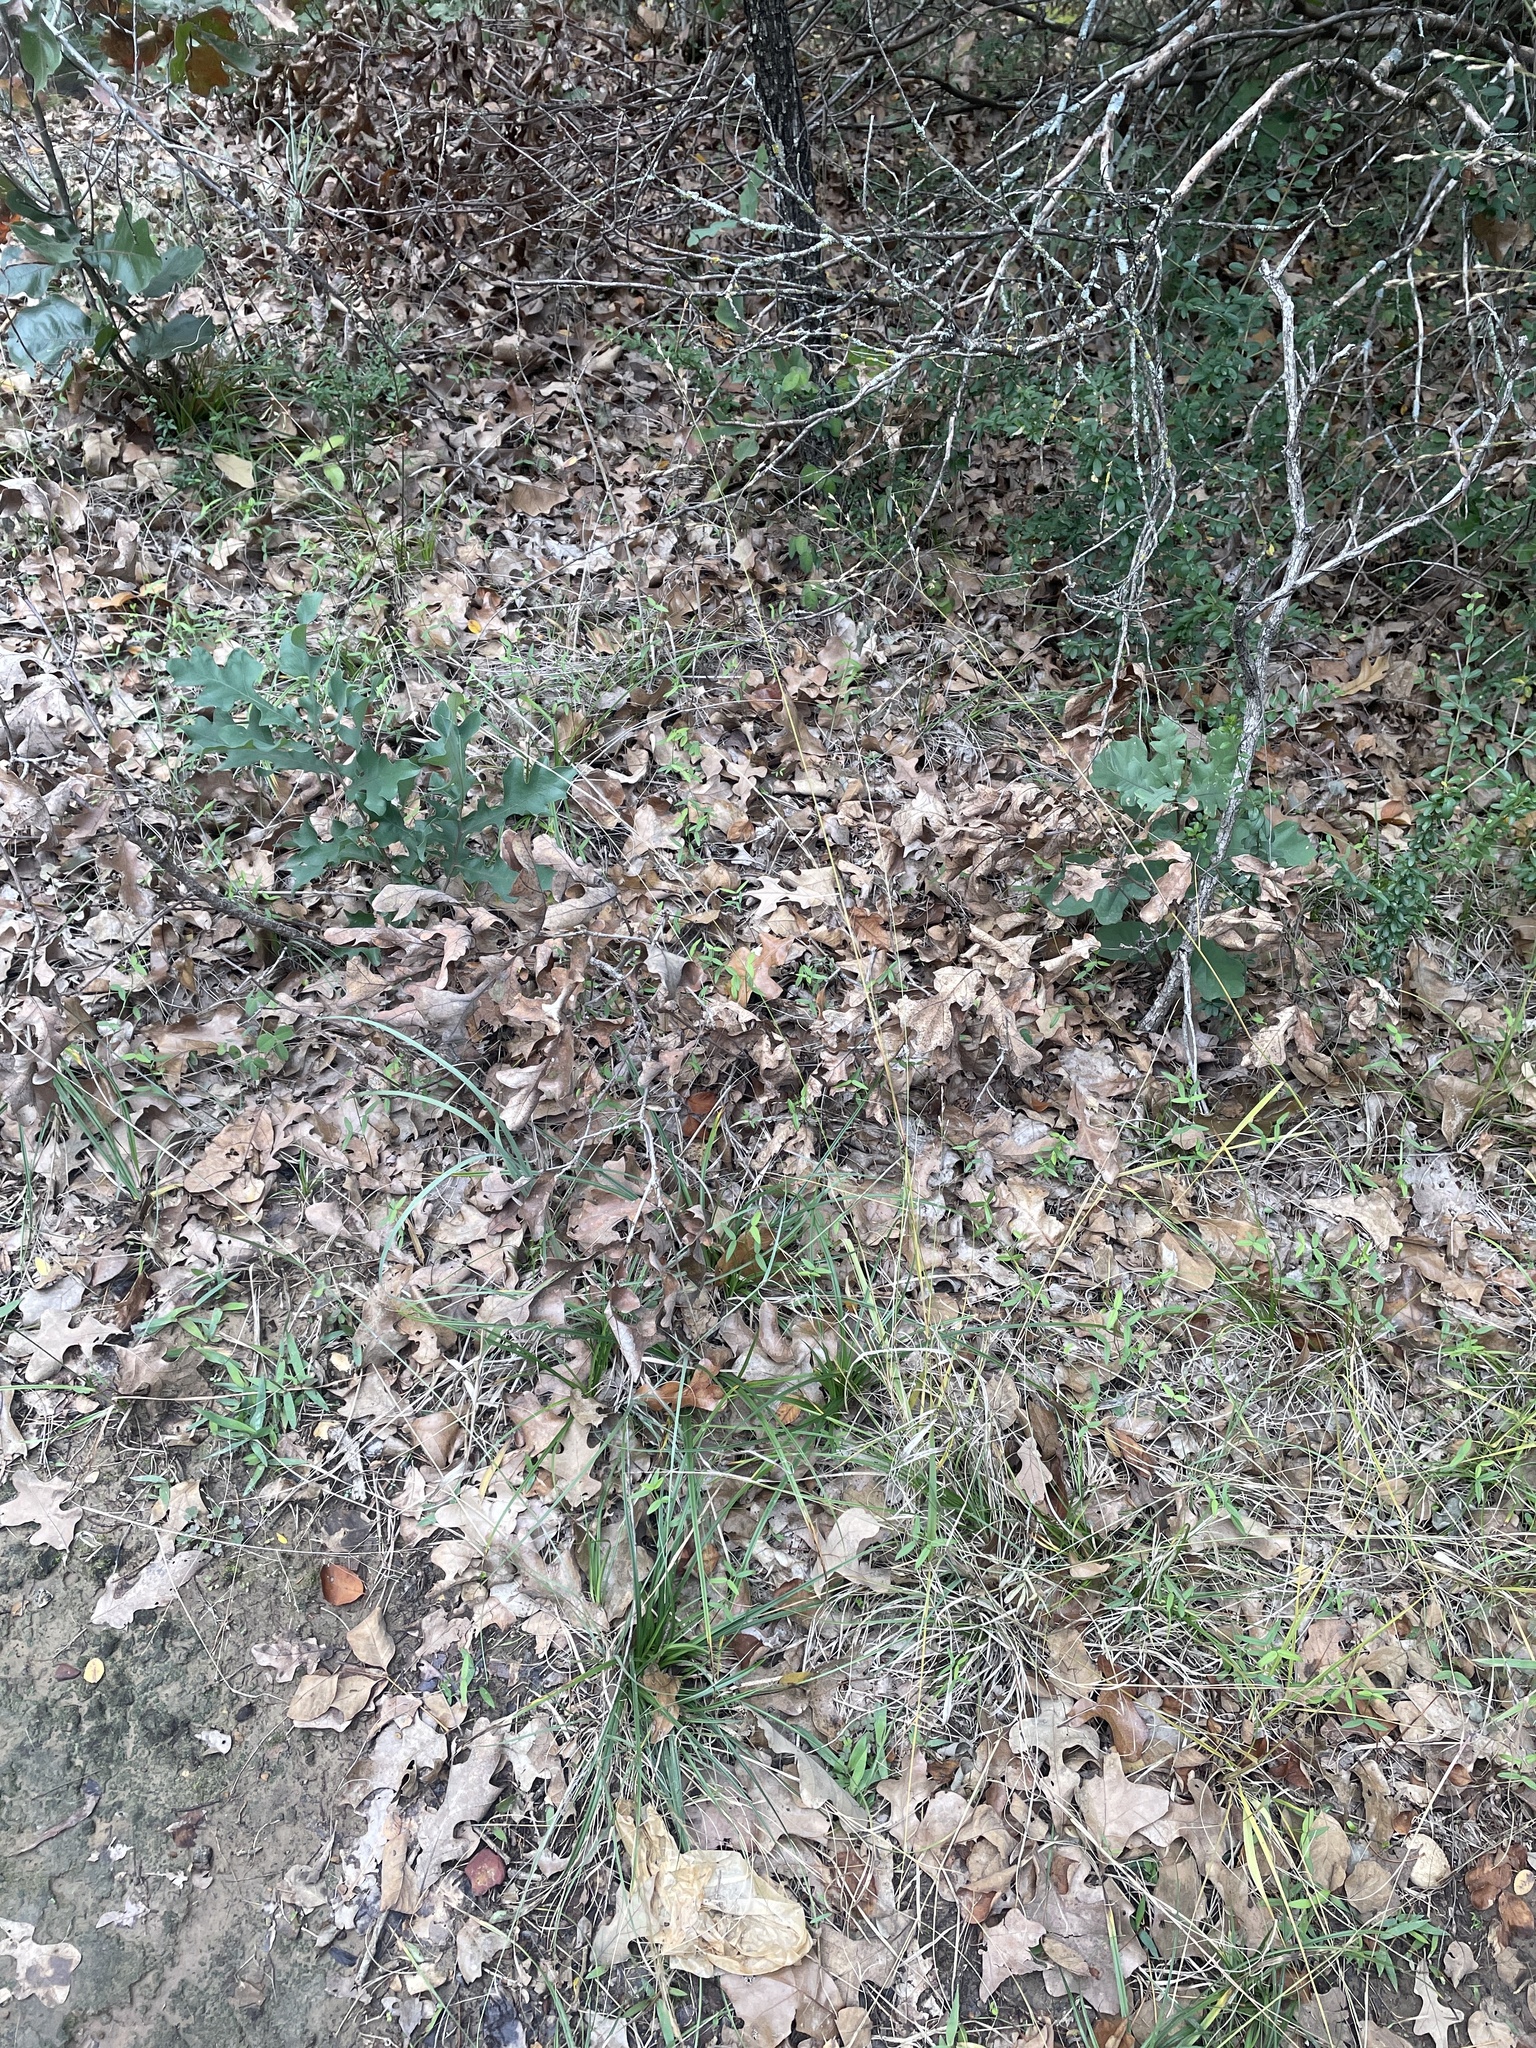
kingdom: Plantae
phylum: Tracheophyta
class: Liliopsida
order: Poales
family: Poaceae
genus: Tridens
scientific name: Tridens flavus
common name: Purpletop
